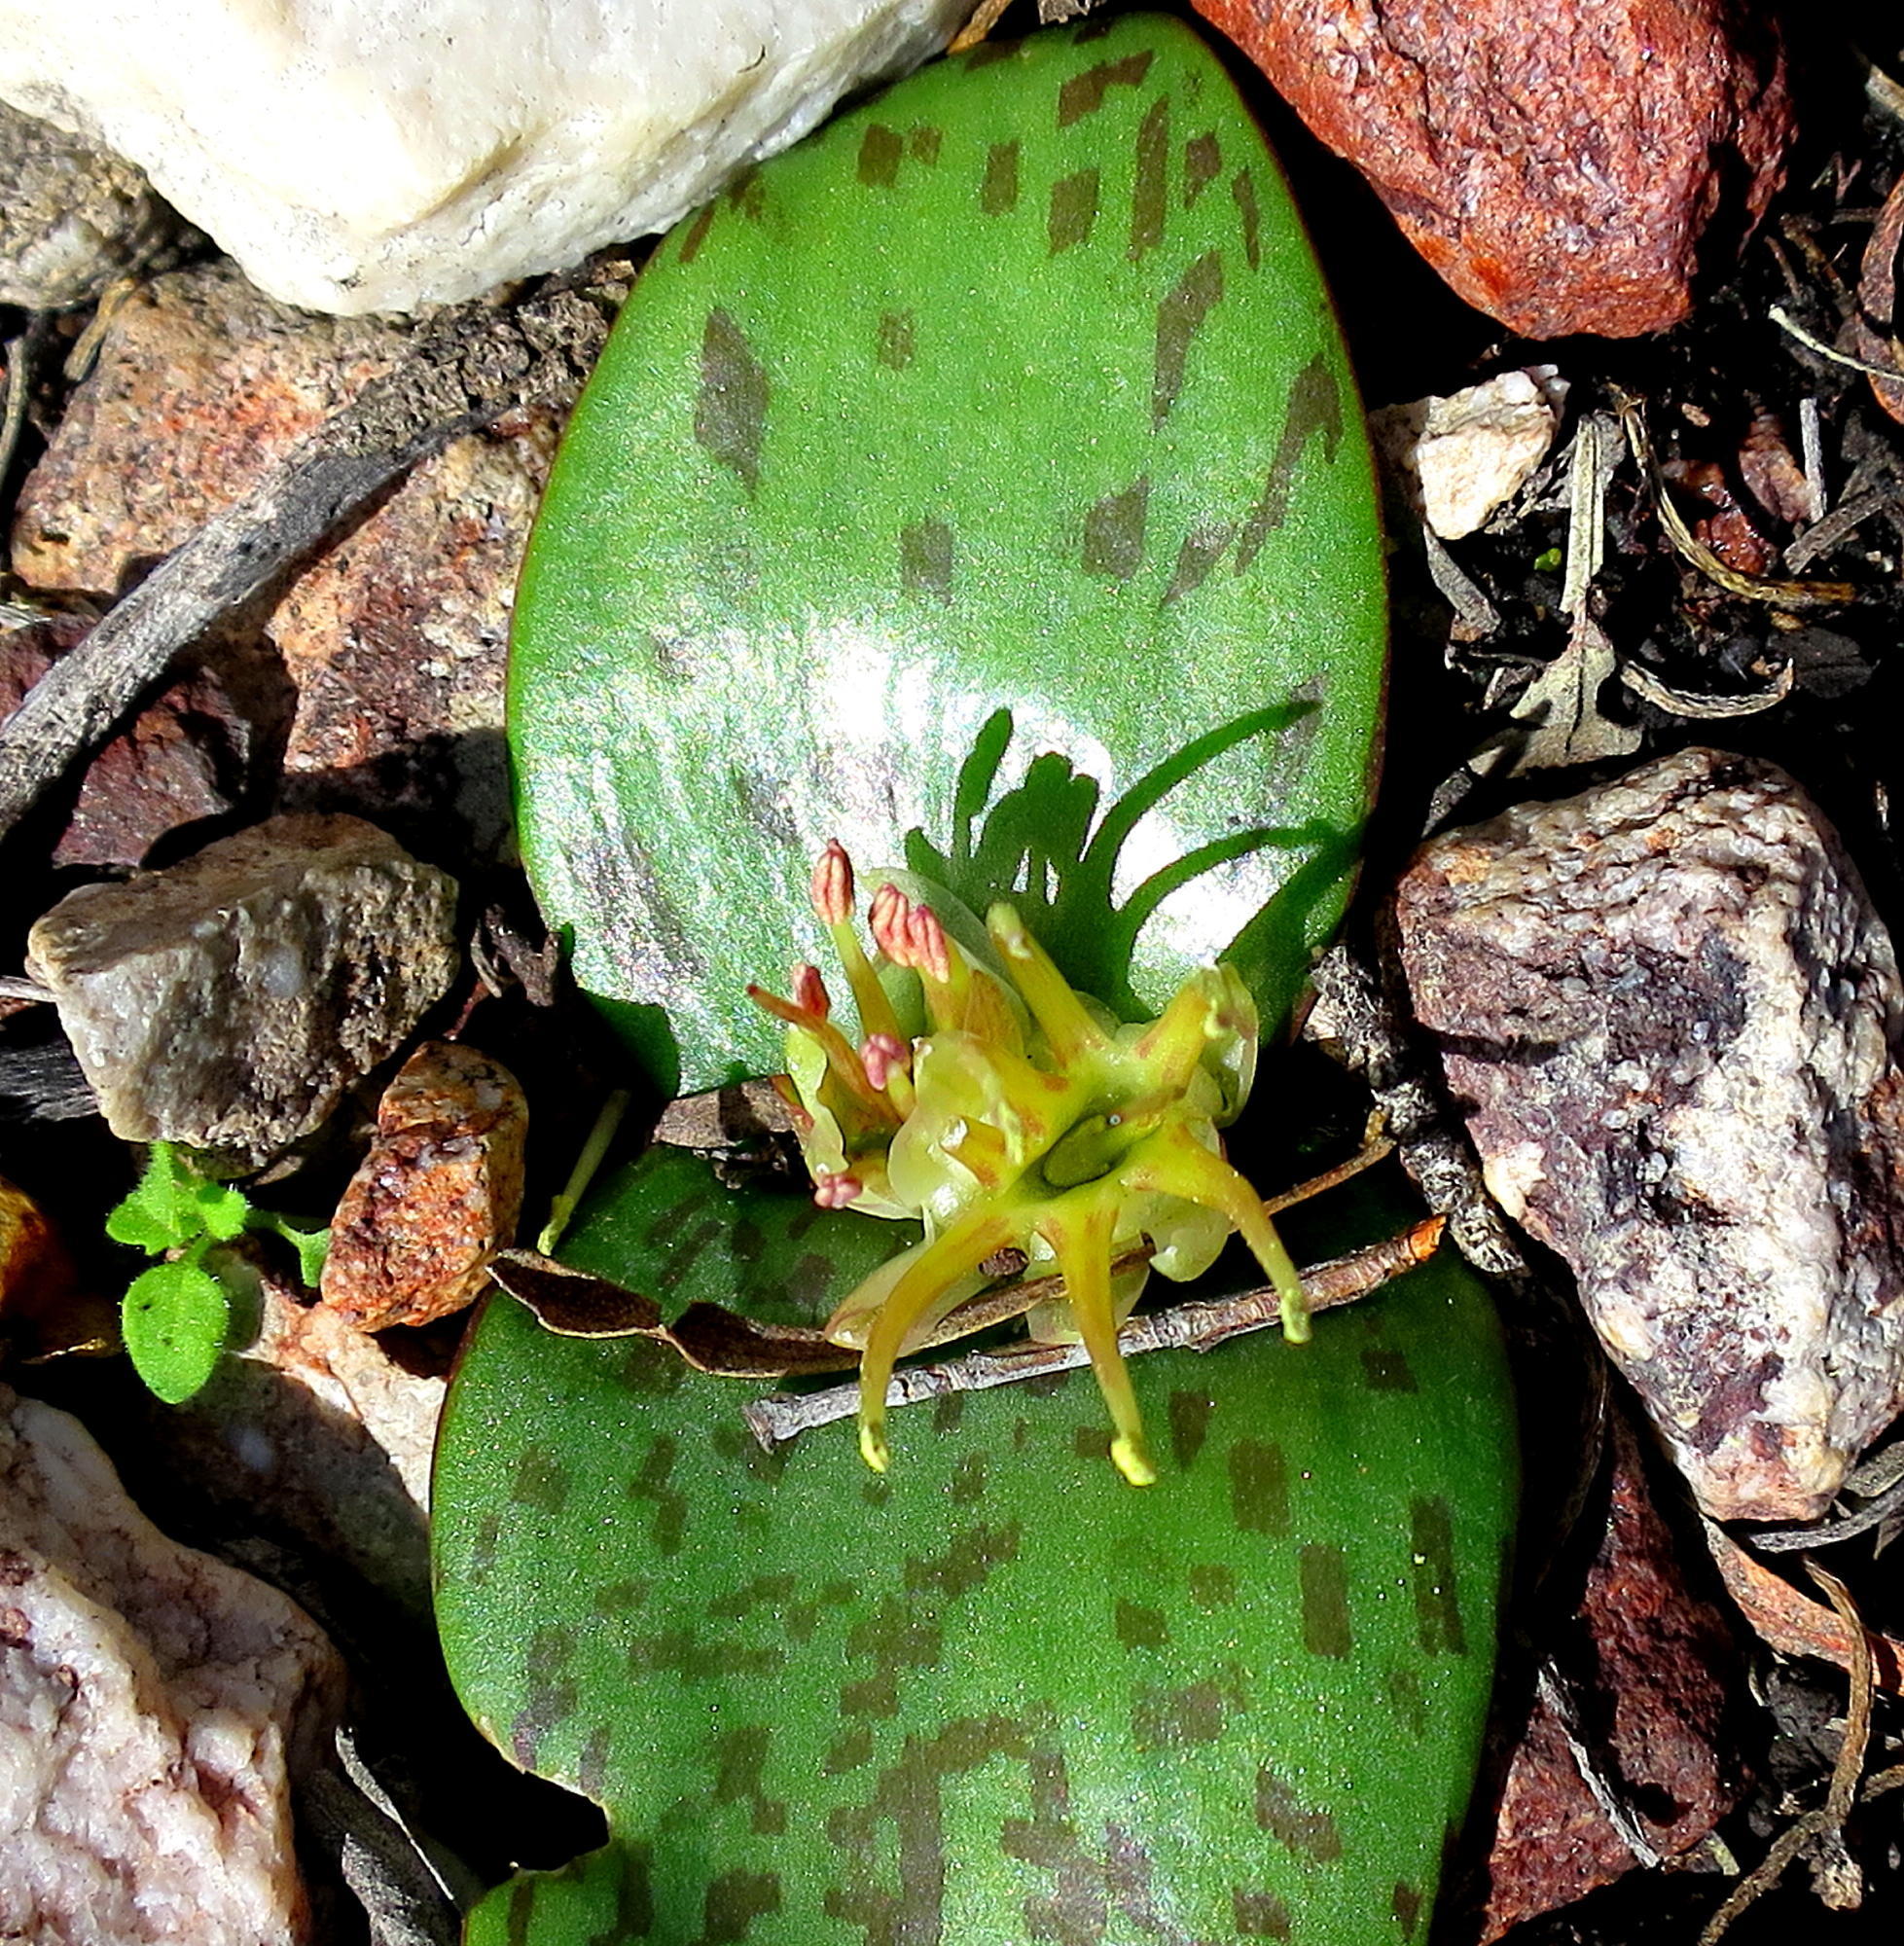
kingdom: Plantae
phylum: Tracheophyta
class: Liliopsida
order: Asparagales
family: Asparagaceae
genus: Massonia
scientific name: Massonia depressa
